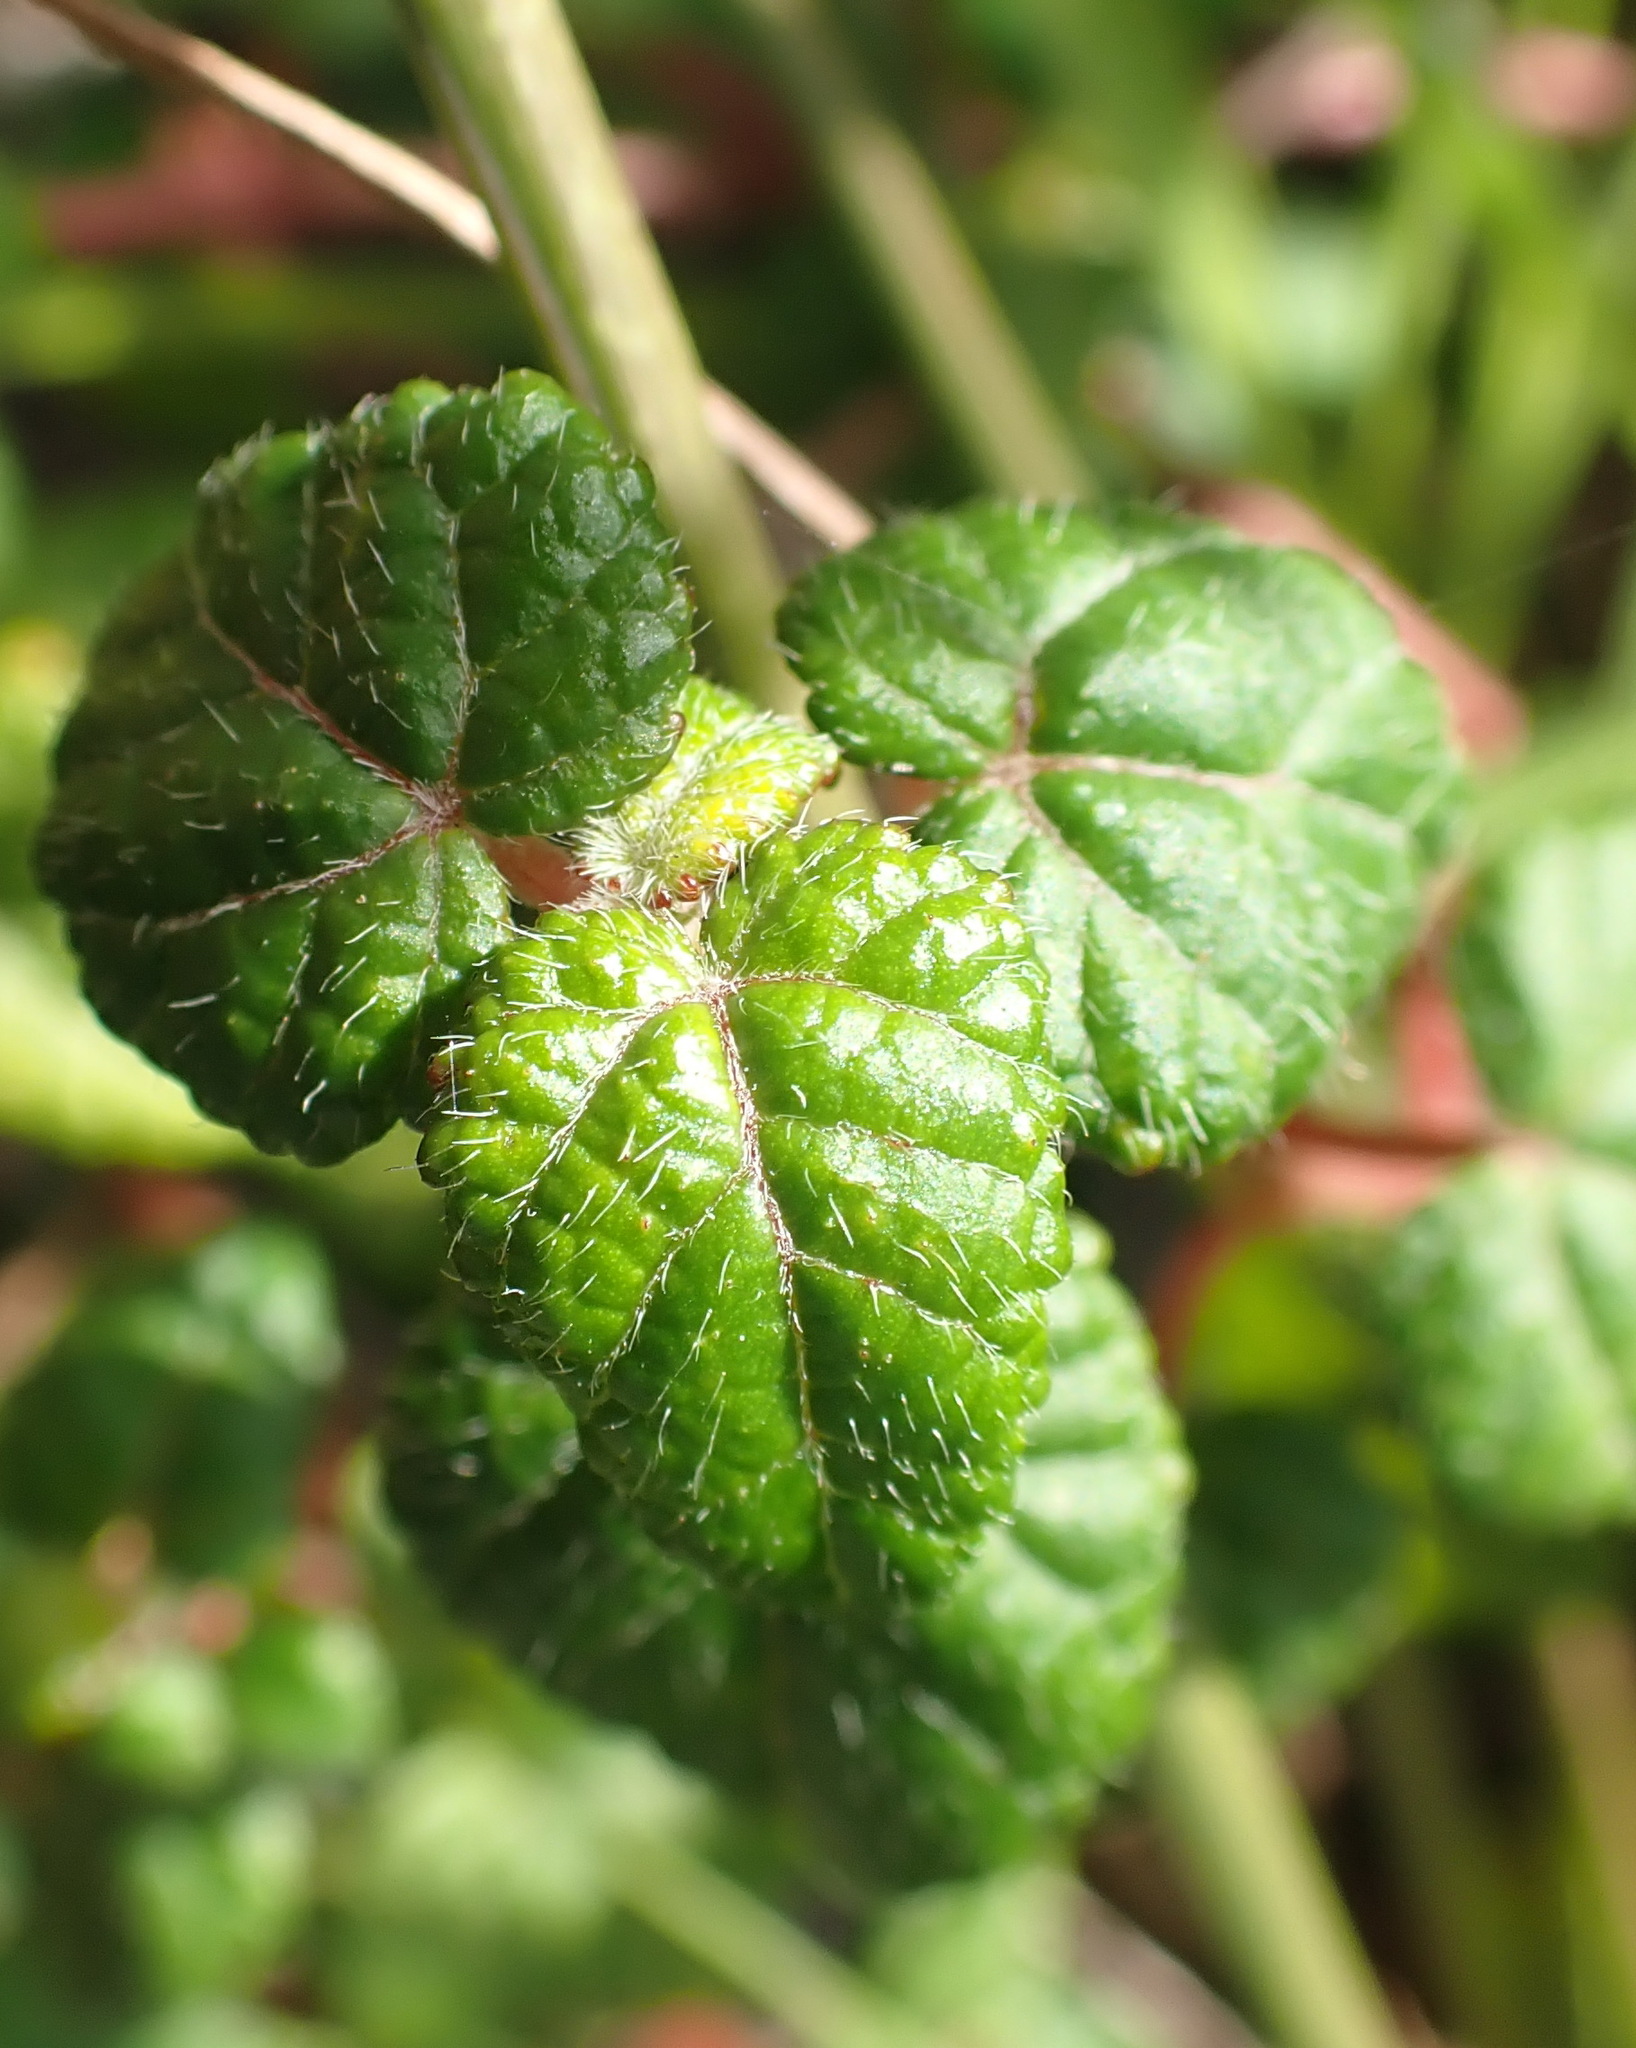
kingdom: Plantae
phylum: Tracheophyta
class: Magnoliopsida
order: Malpighiales
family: Euphorbiaceae
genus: Bernardia
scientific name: Bernardia corensis
